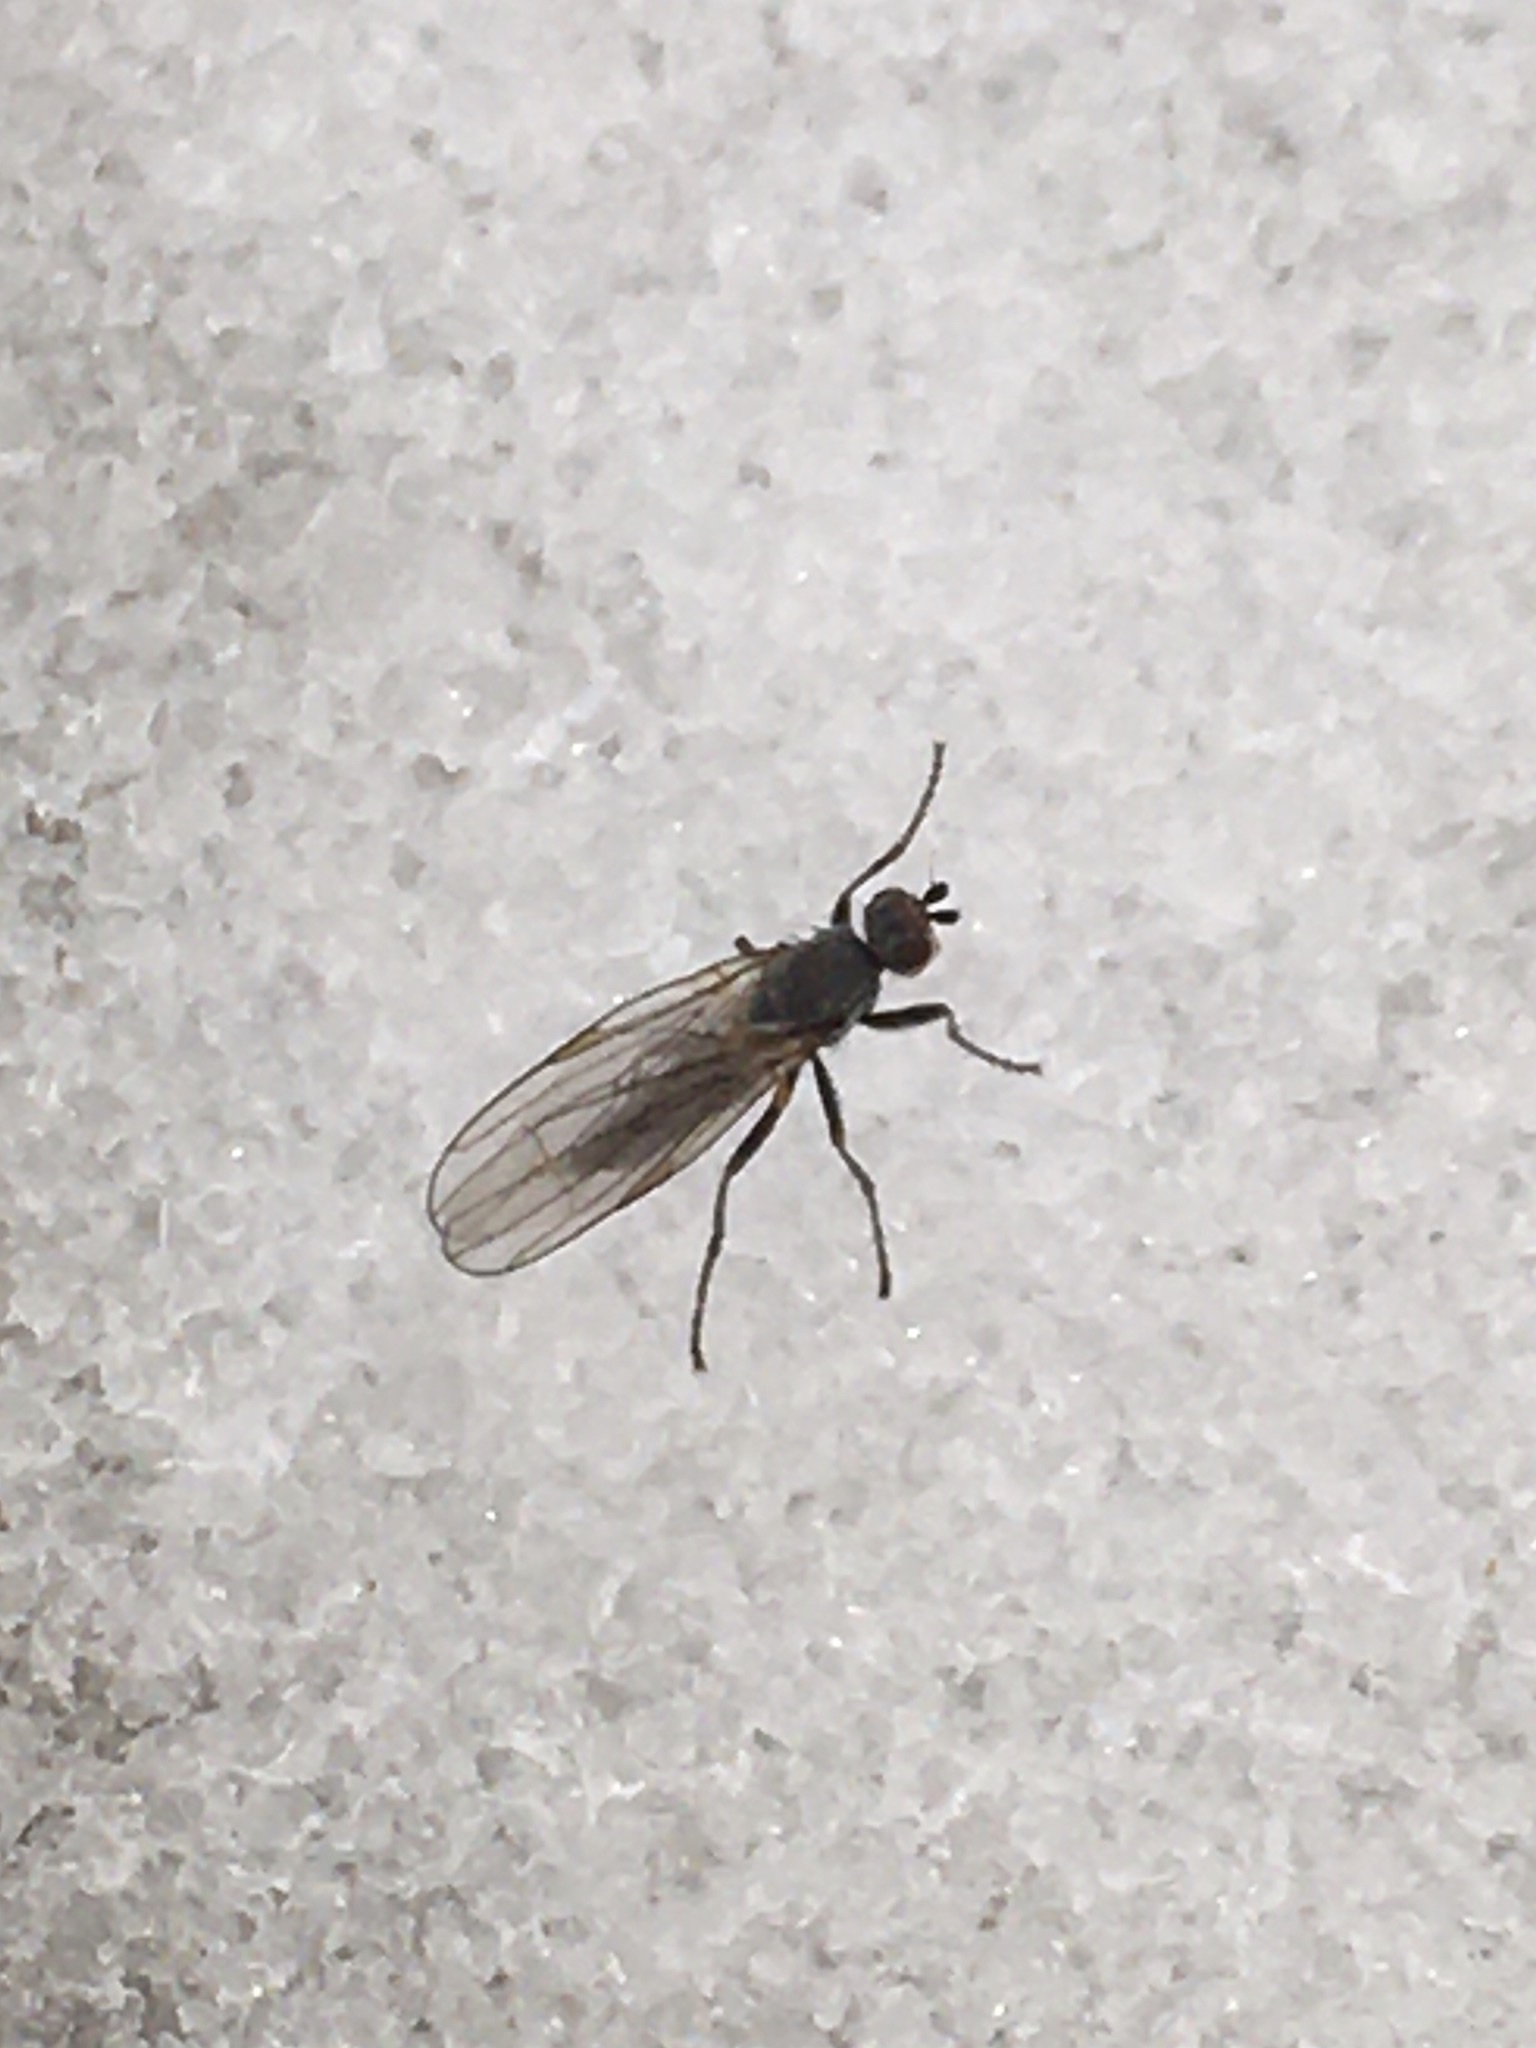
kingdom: Animalia
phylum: Arthropoda
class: Insecta
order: Diptera
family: Heleomyzidae
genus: Orbellia
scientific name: Orbellia petersoni
